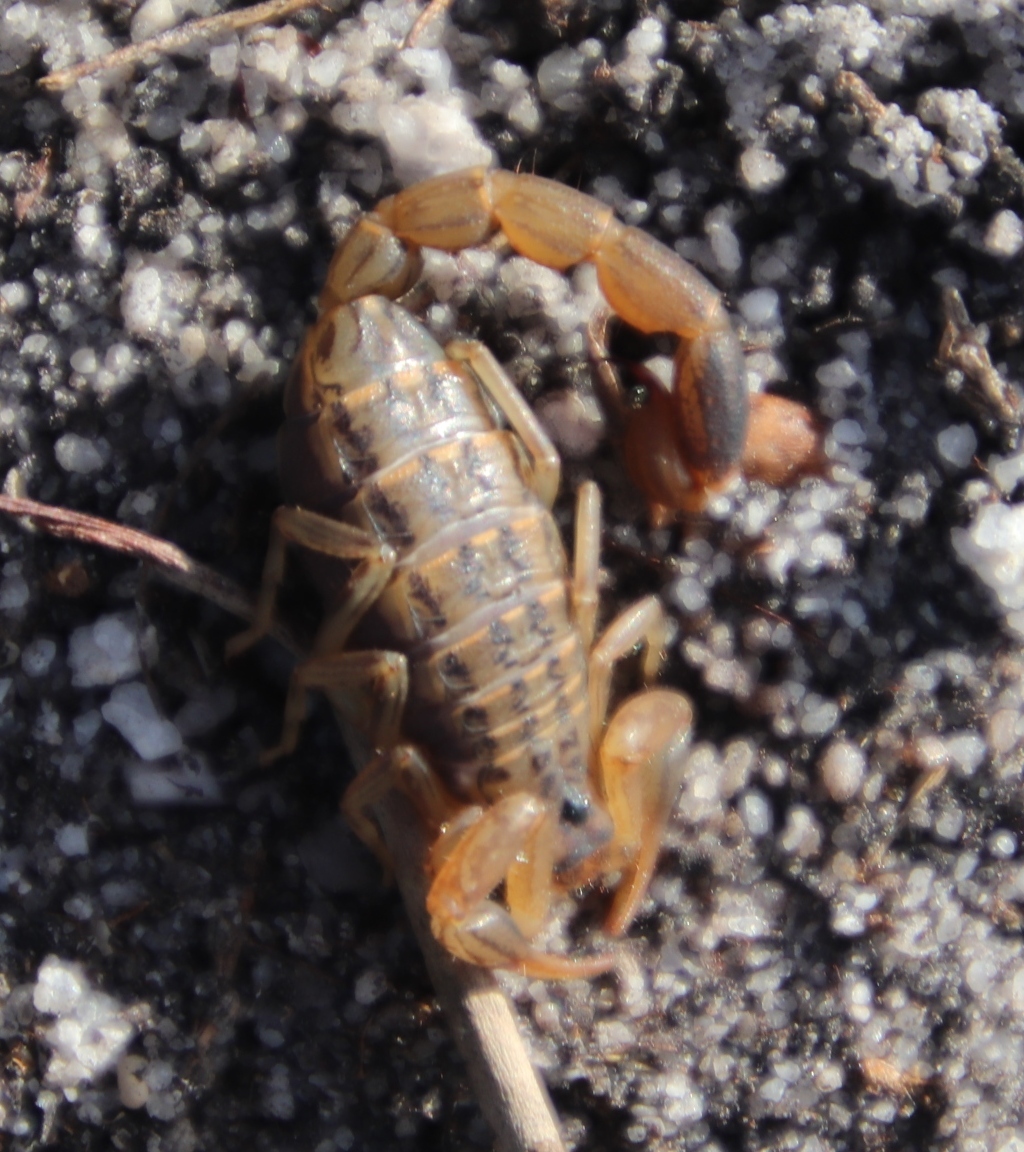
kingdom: Animalia
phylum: Arthropoda
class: Arachnida
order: Scorpiones
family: Buthidae
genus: Uroplectes
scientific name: Uroplectes lineatus
